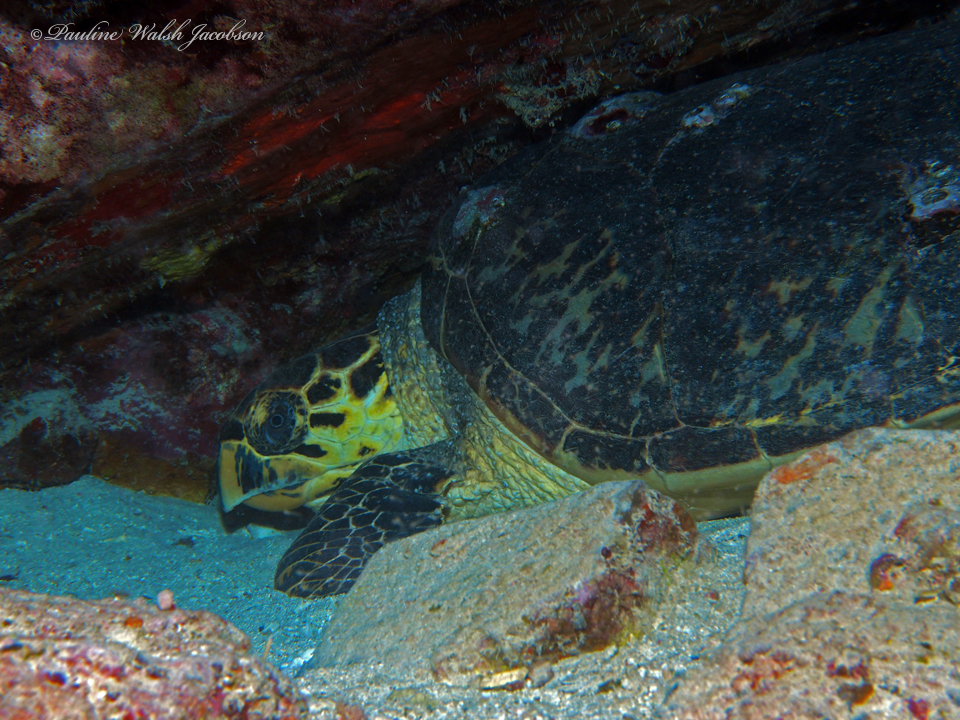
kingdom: Animalia
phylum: Chordata
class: Testudines
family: Cheloniidae
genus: Eretmochelys
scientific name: Eretmochelys imbricata
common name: Hawksbill turtle
